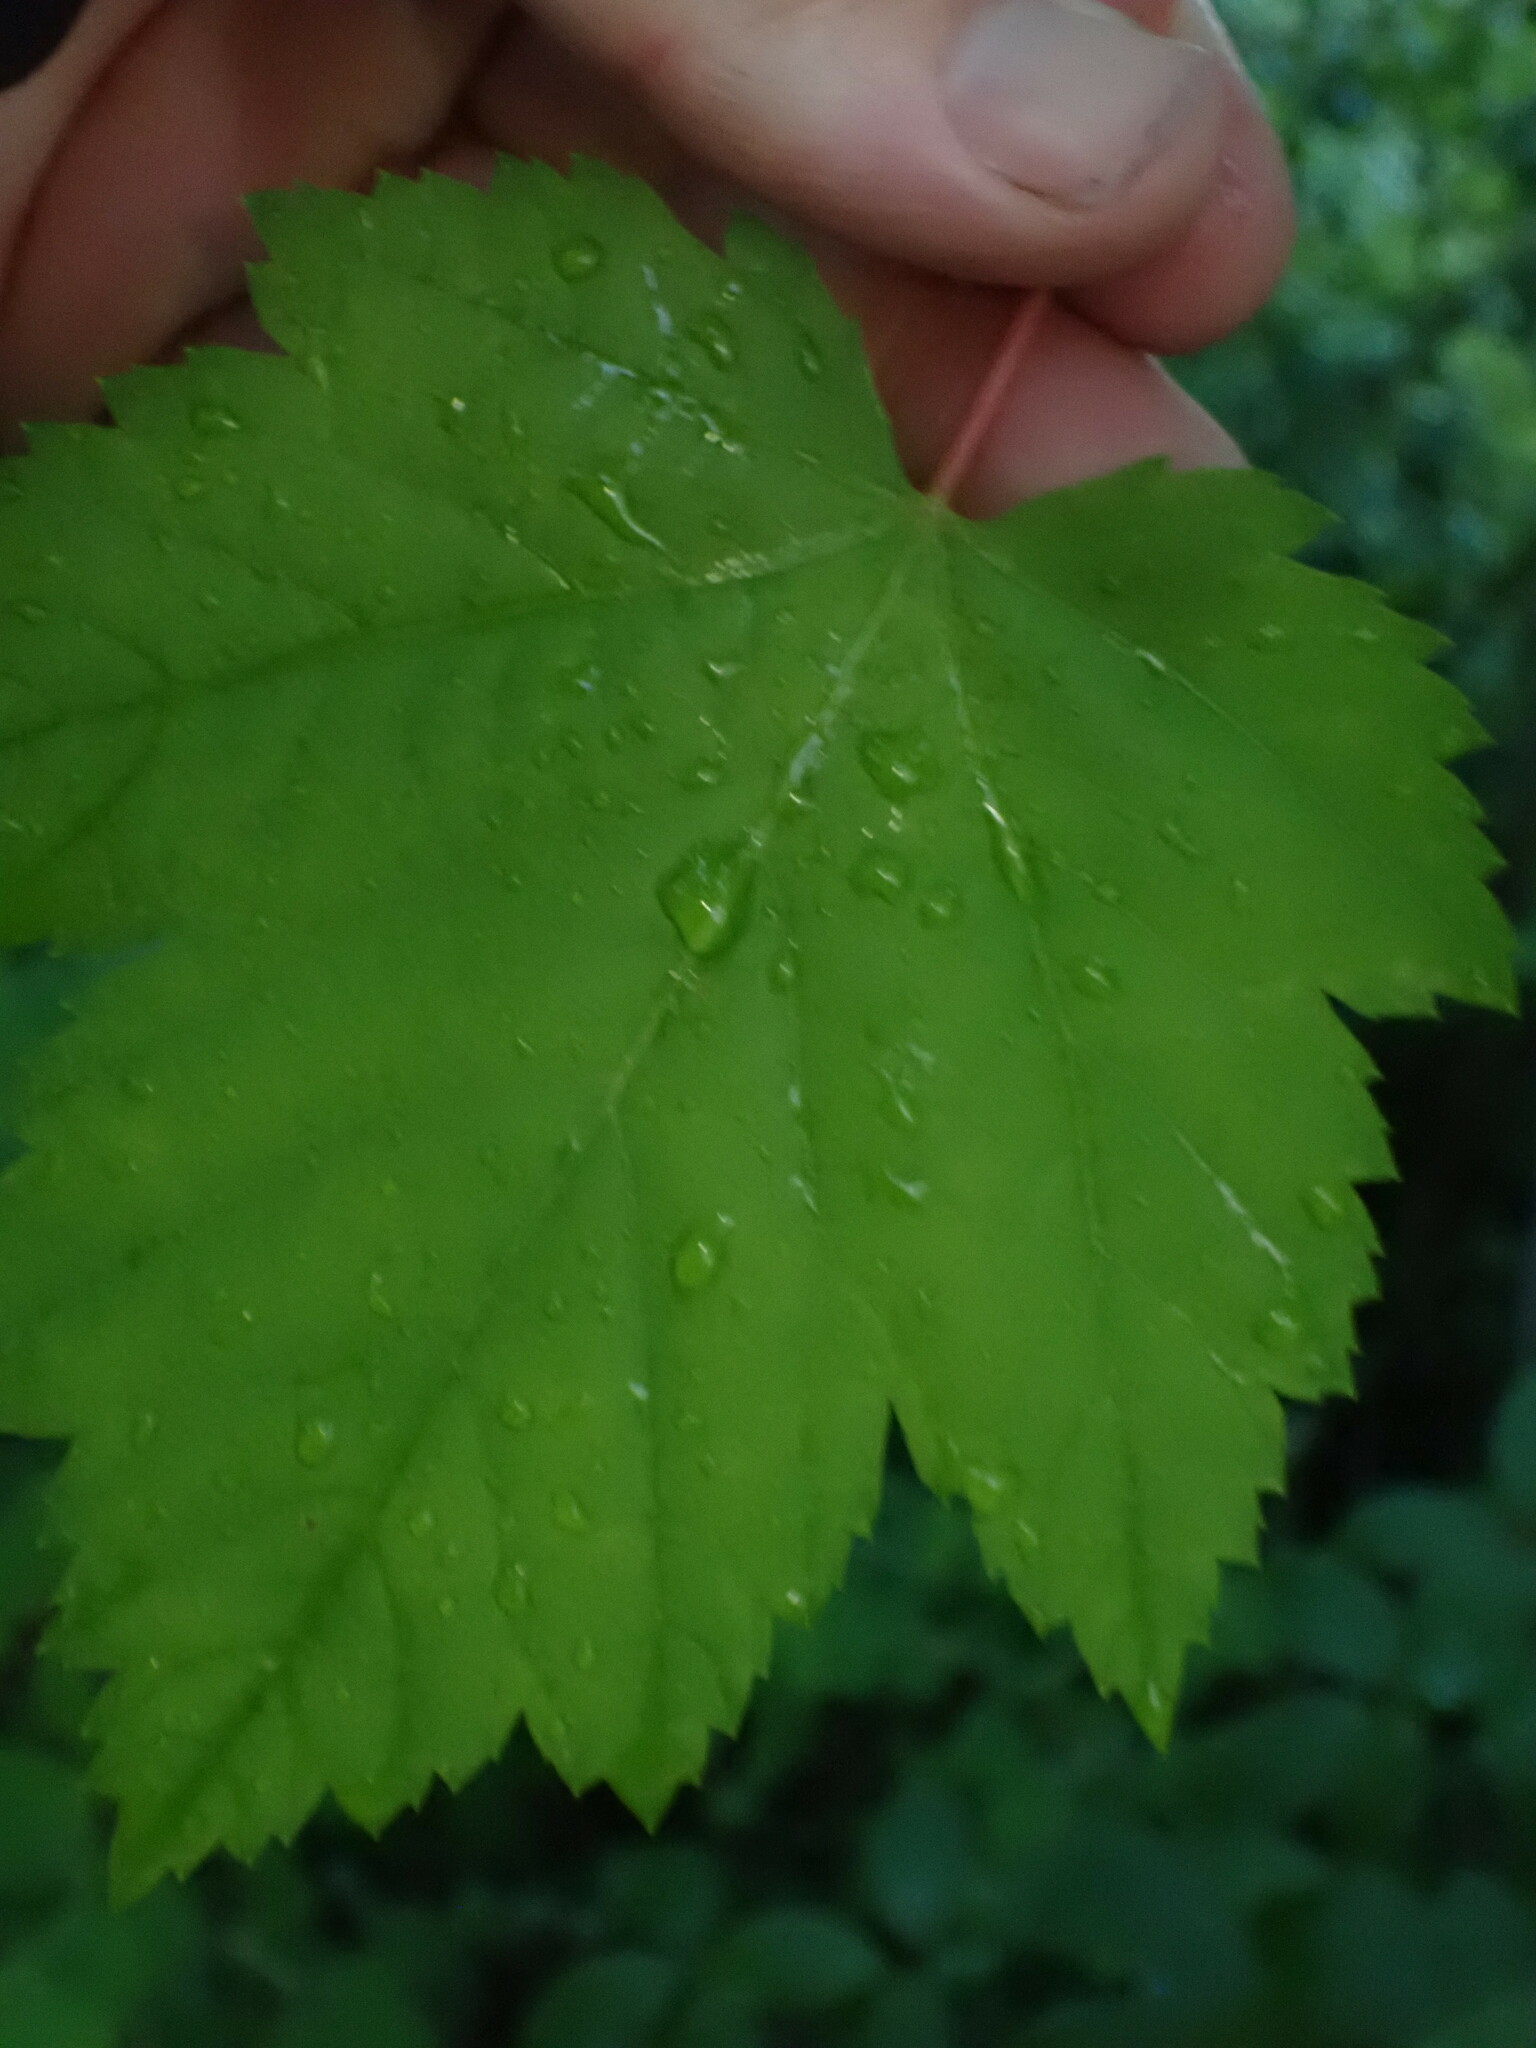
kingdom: Plantae
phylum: Tracheophyta
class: Magnoliopsida
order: Sapindales
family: Sapindaceae
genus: Acer
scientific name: Acer glabrum
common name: Rocky mountain maple
